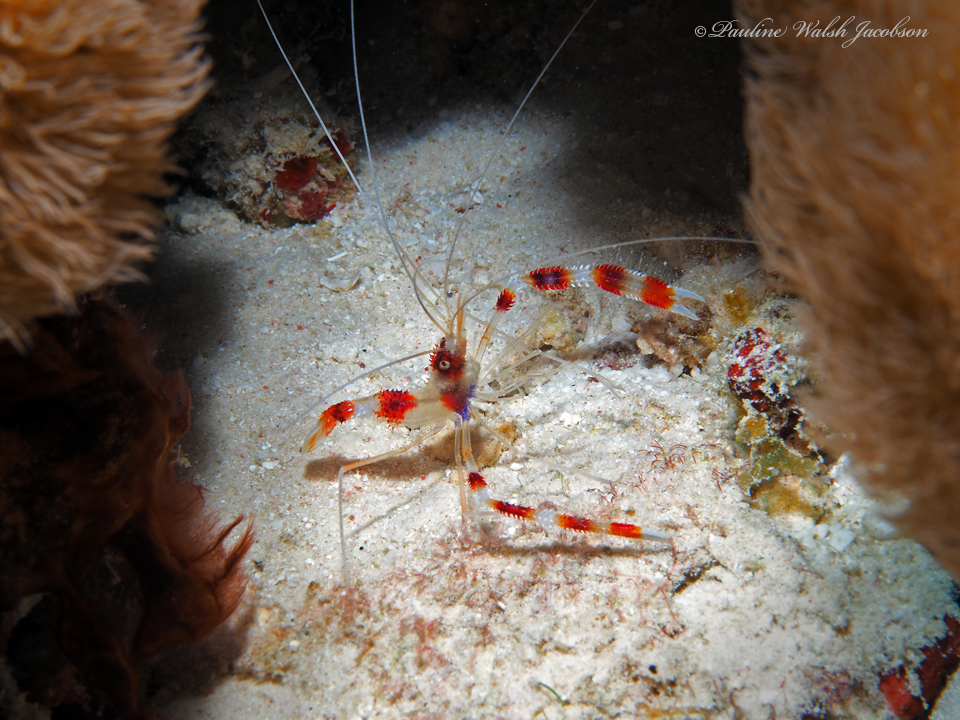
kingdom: Animalia
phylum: Arthropoda
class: Malacostraca
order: Decapoda
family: Stenopodidae
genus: Stenopus
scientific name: Stenopus hispidus
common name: Banded coral shrimp
